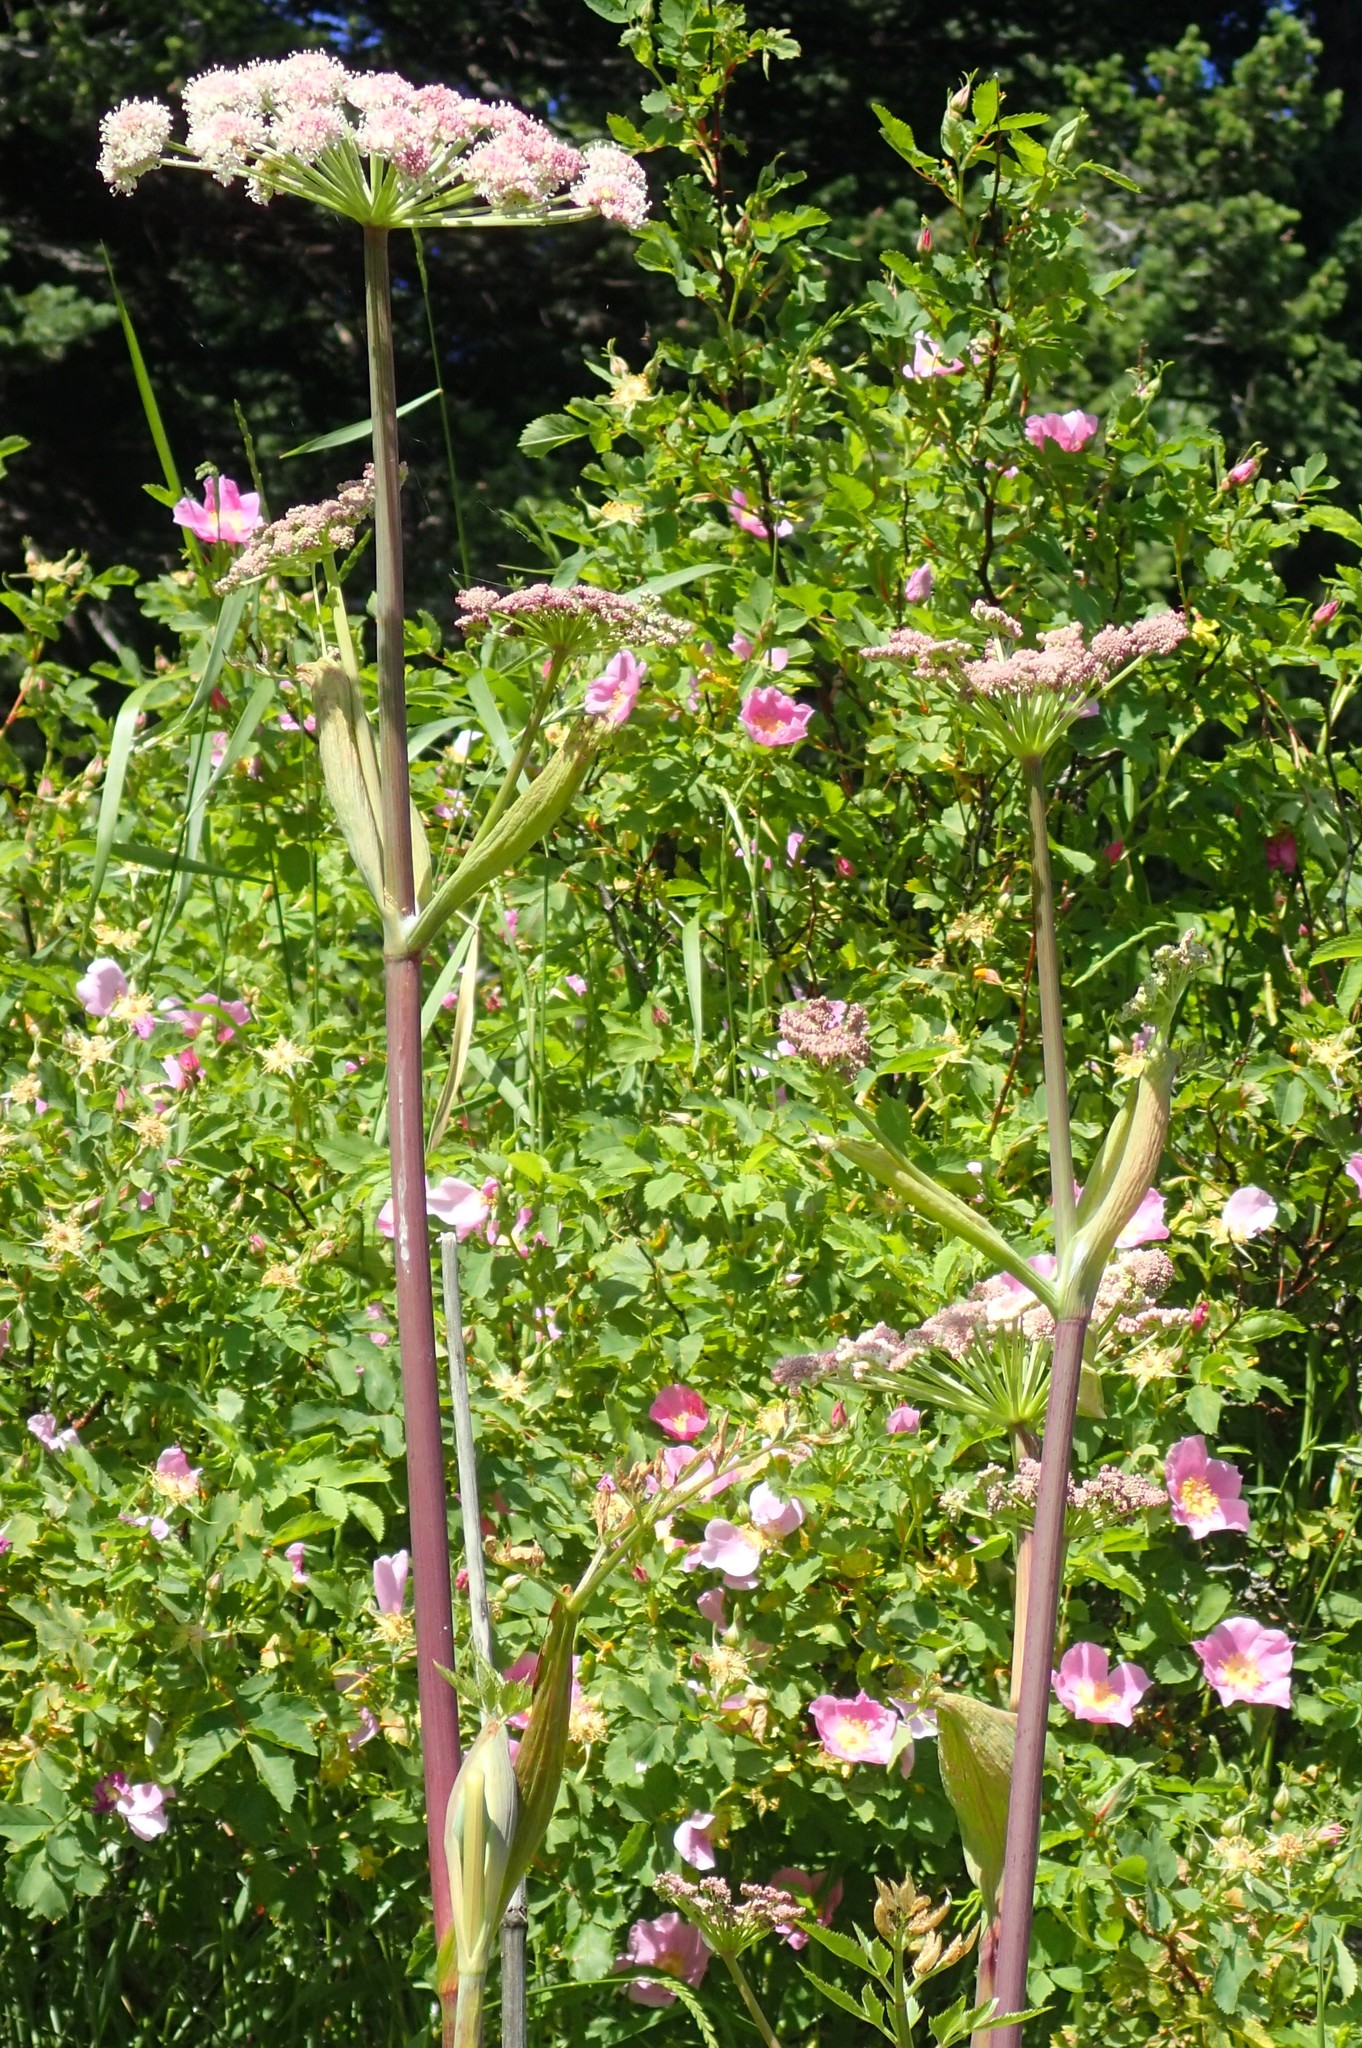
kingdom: Plantae
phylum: Tracheophyta
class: Magnoliopsida
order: Apiales
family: Apiaceae
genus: Angelica
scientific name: Angelica arguta
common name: Lyall's angelica
